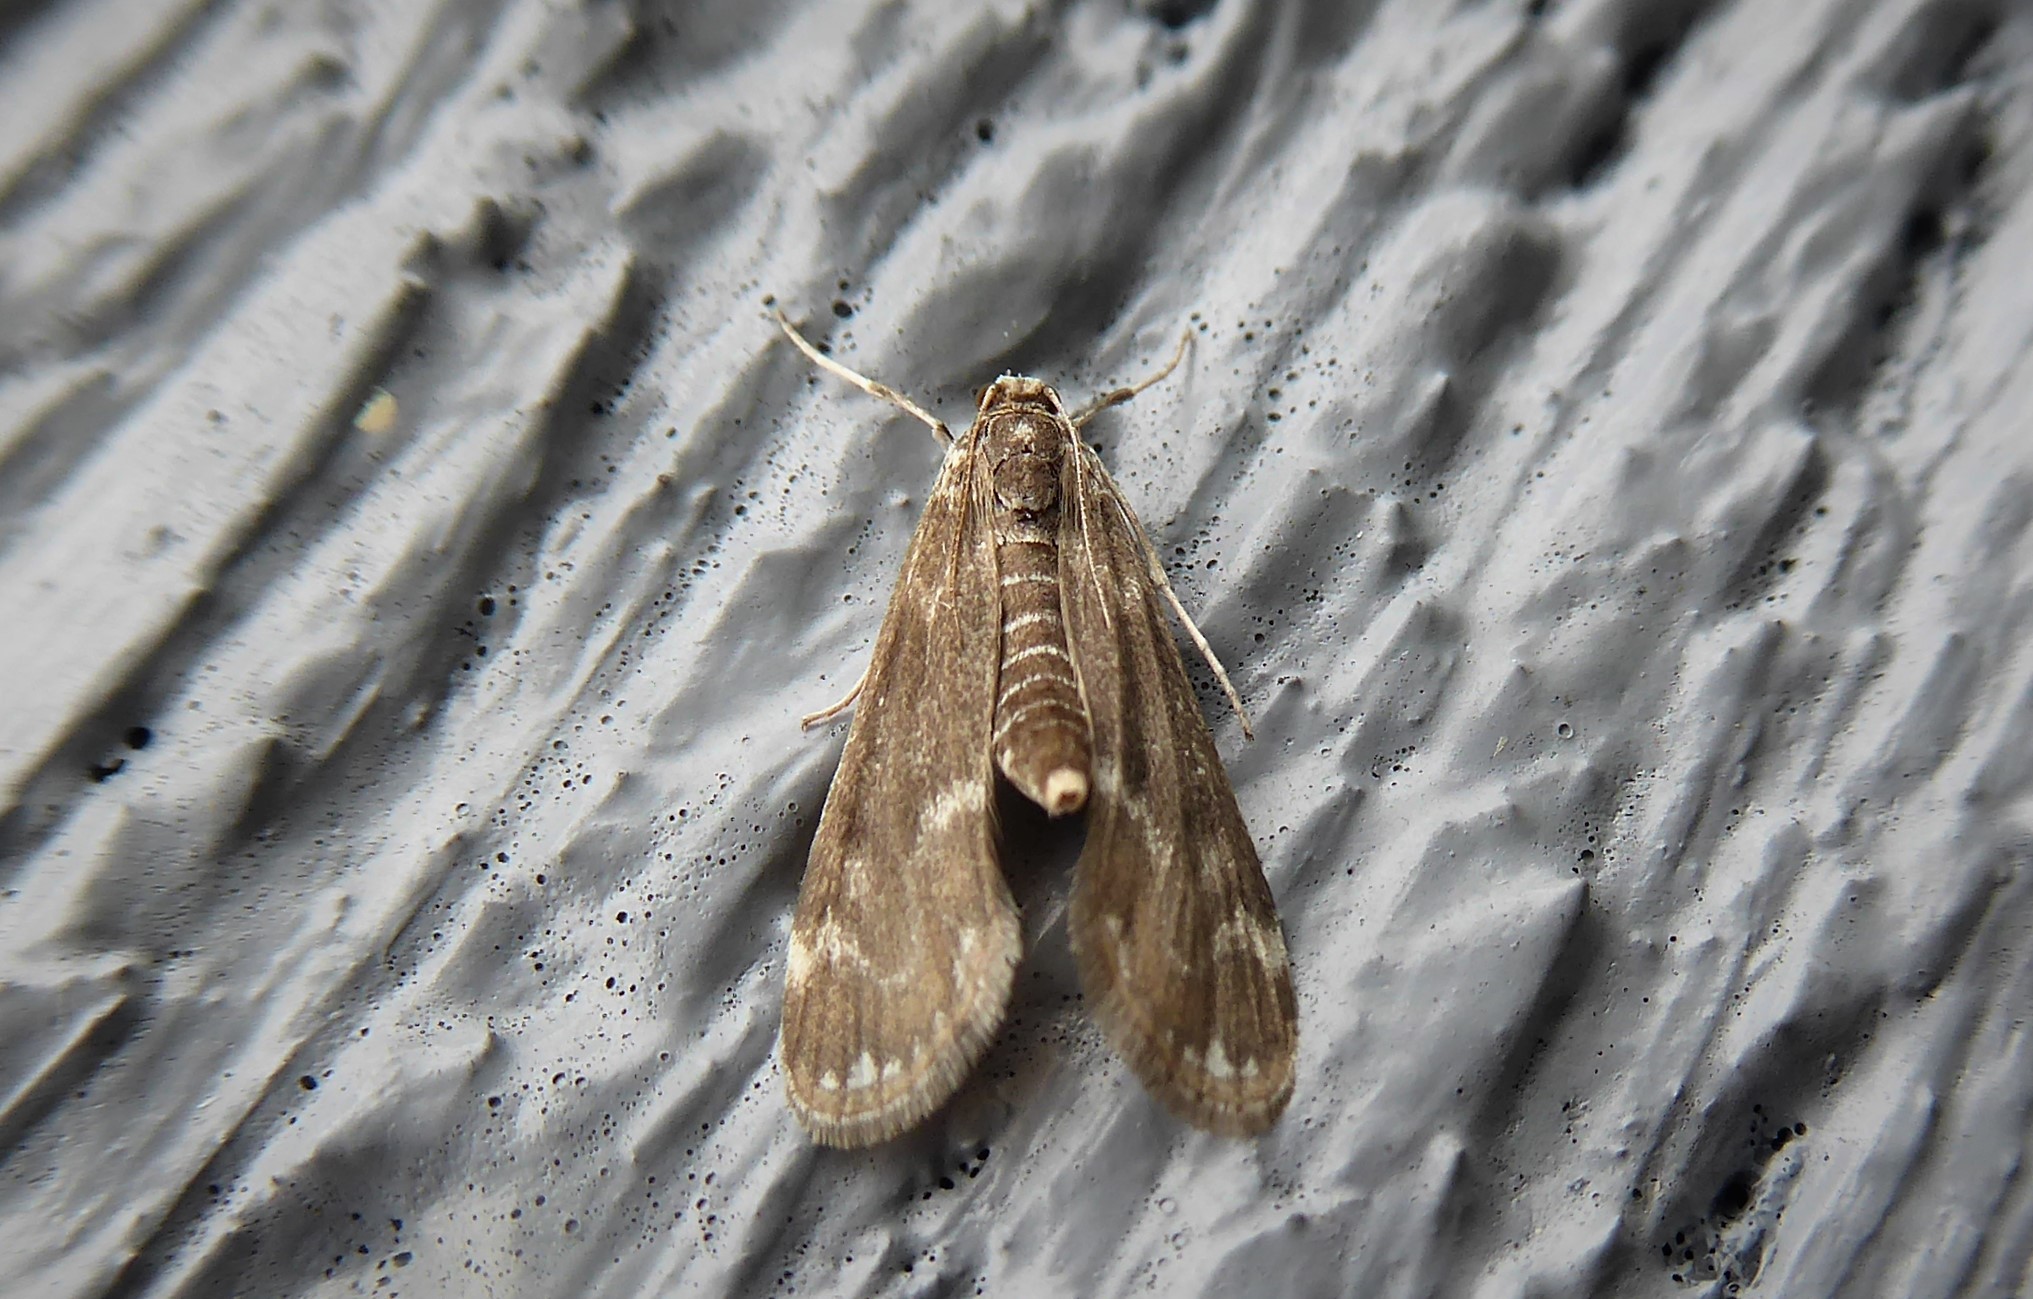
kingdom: Animalia
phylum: Arthropoda
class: Insecta
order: Lepidoptera
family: Crambidae
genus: Hygraula
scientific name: Hygraula nitens
